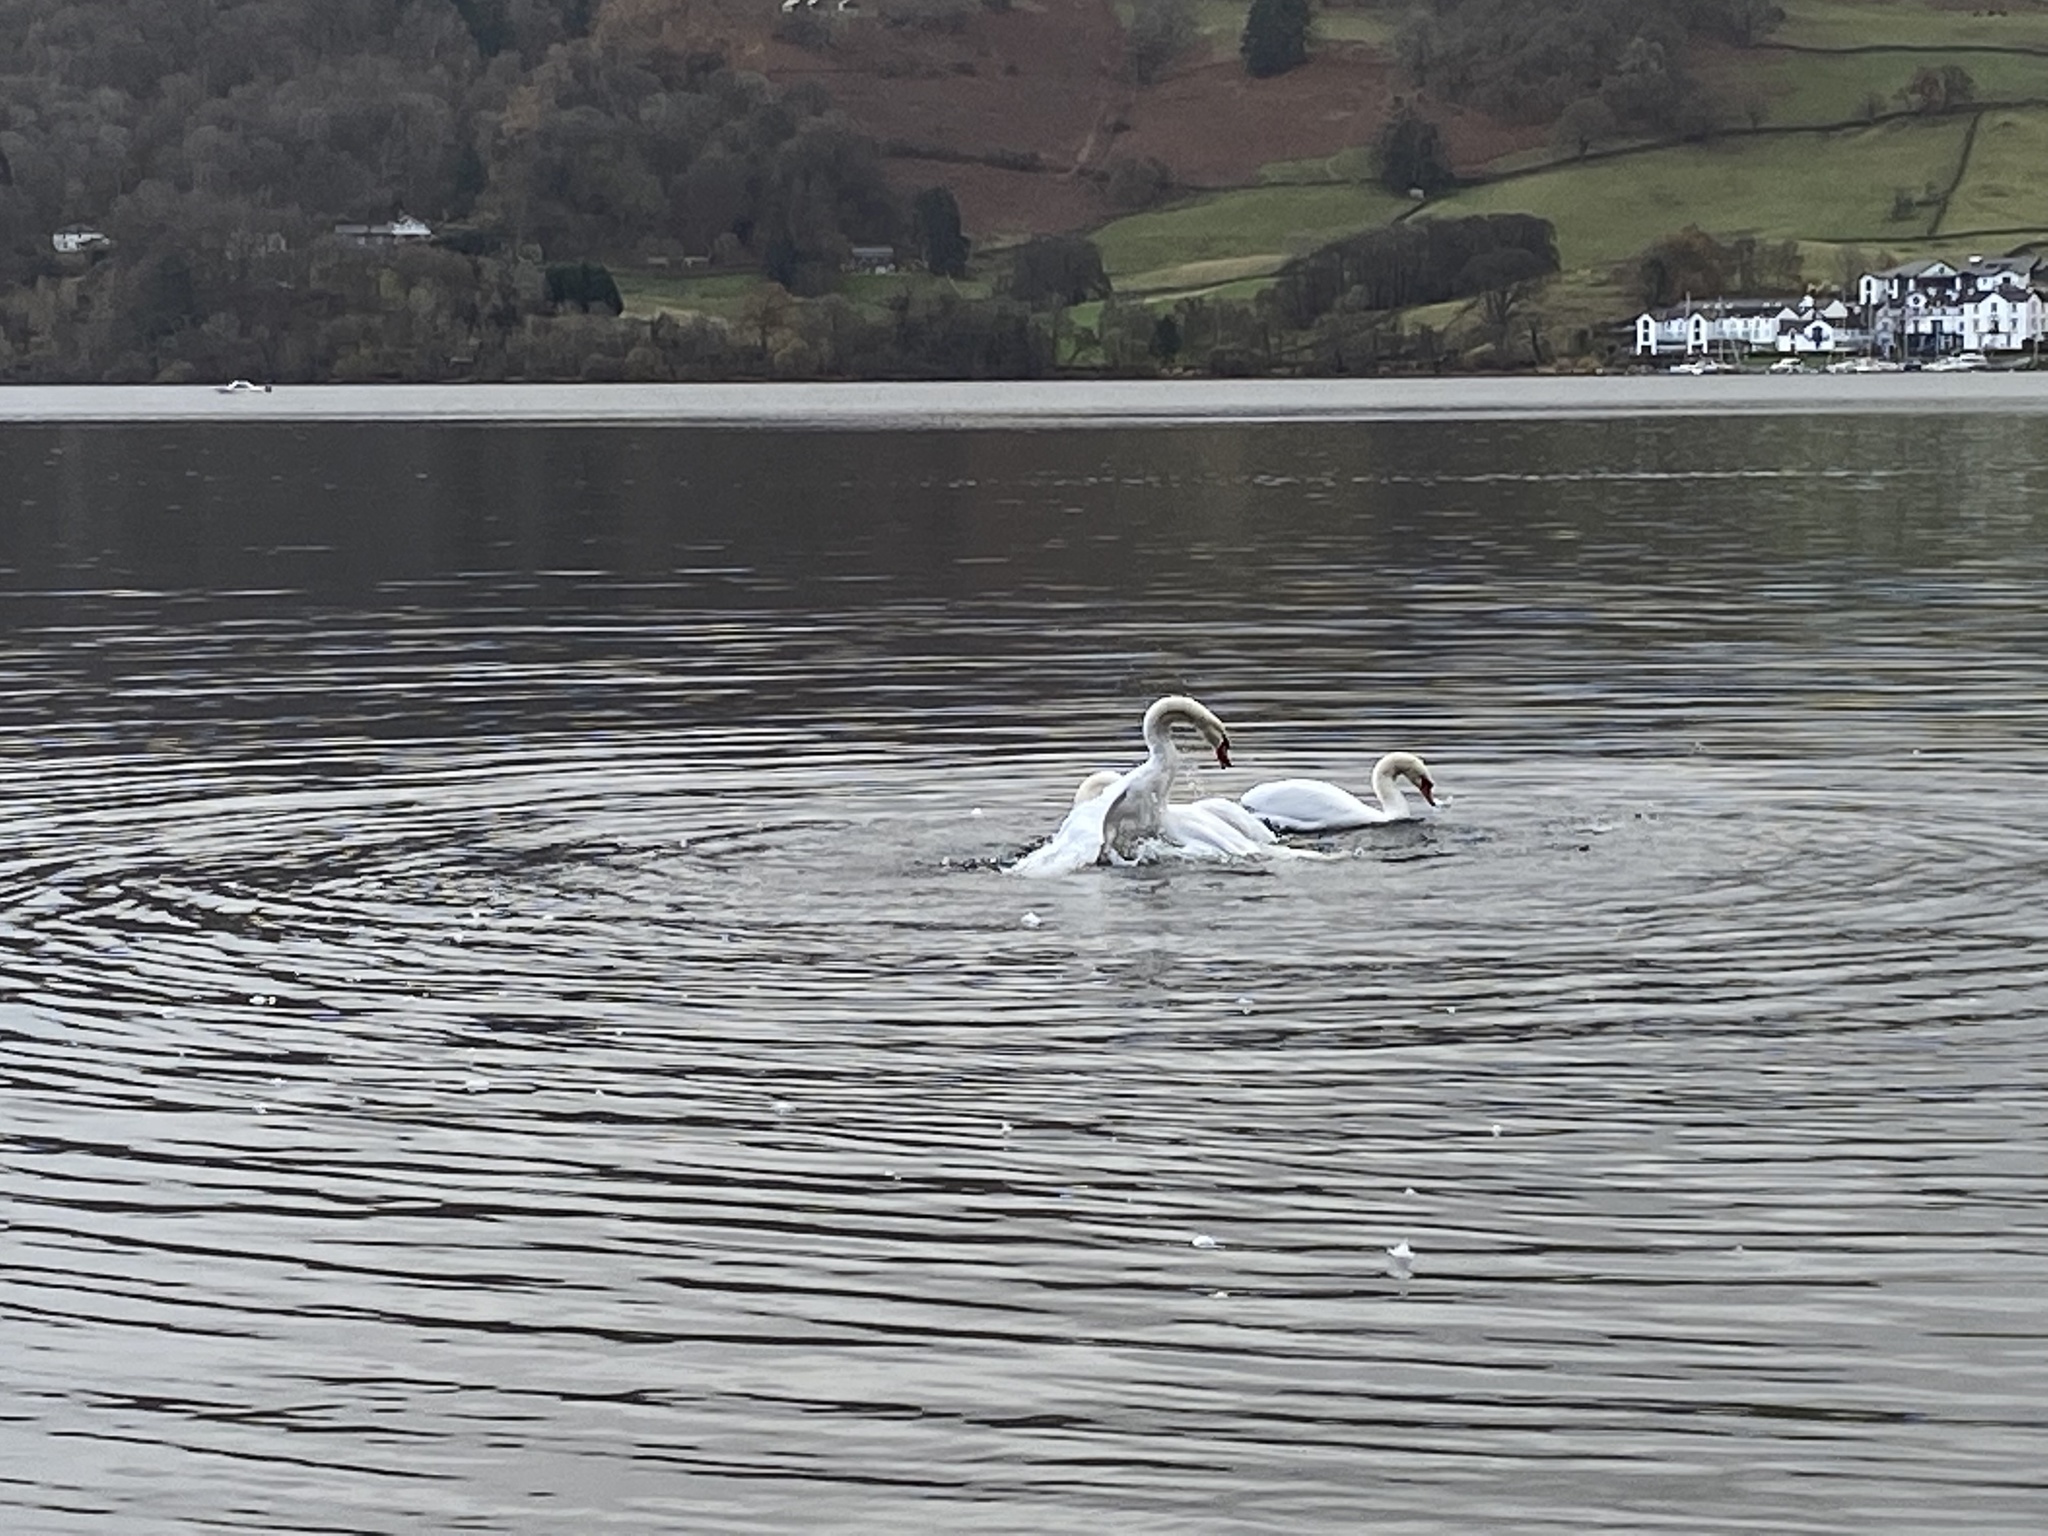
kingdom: Animalia
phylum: Chordata
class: Aves
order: Anseriformes
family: Anatidae
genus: Cygnus
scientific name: Cygnus olor
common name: Mute swan
